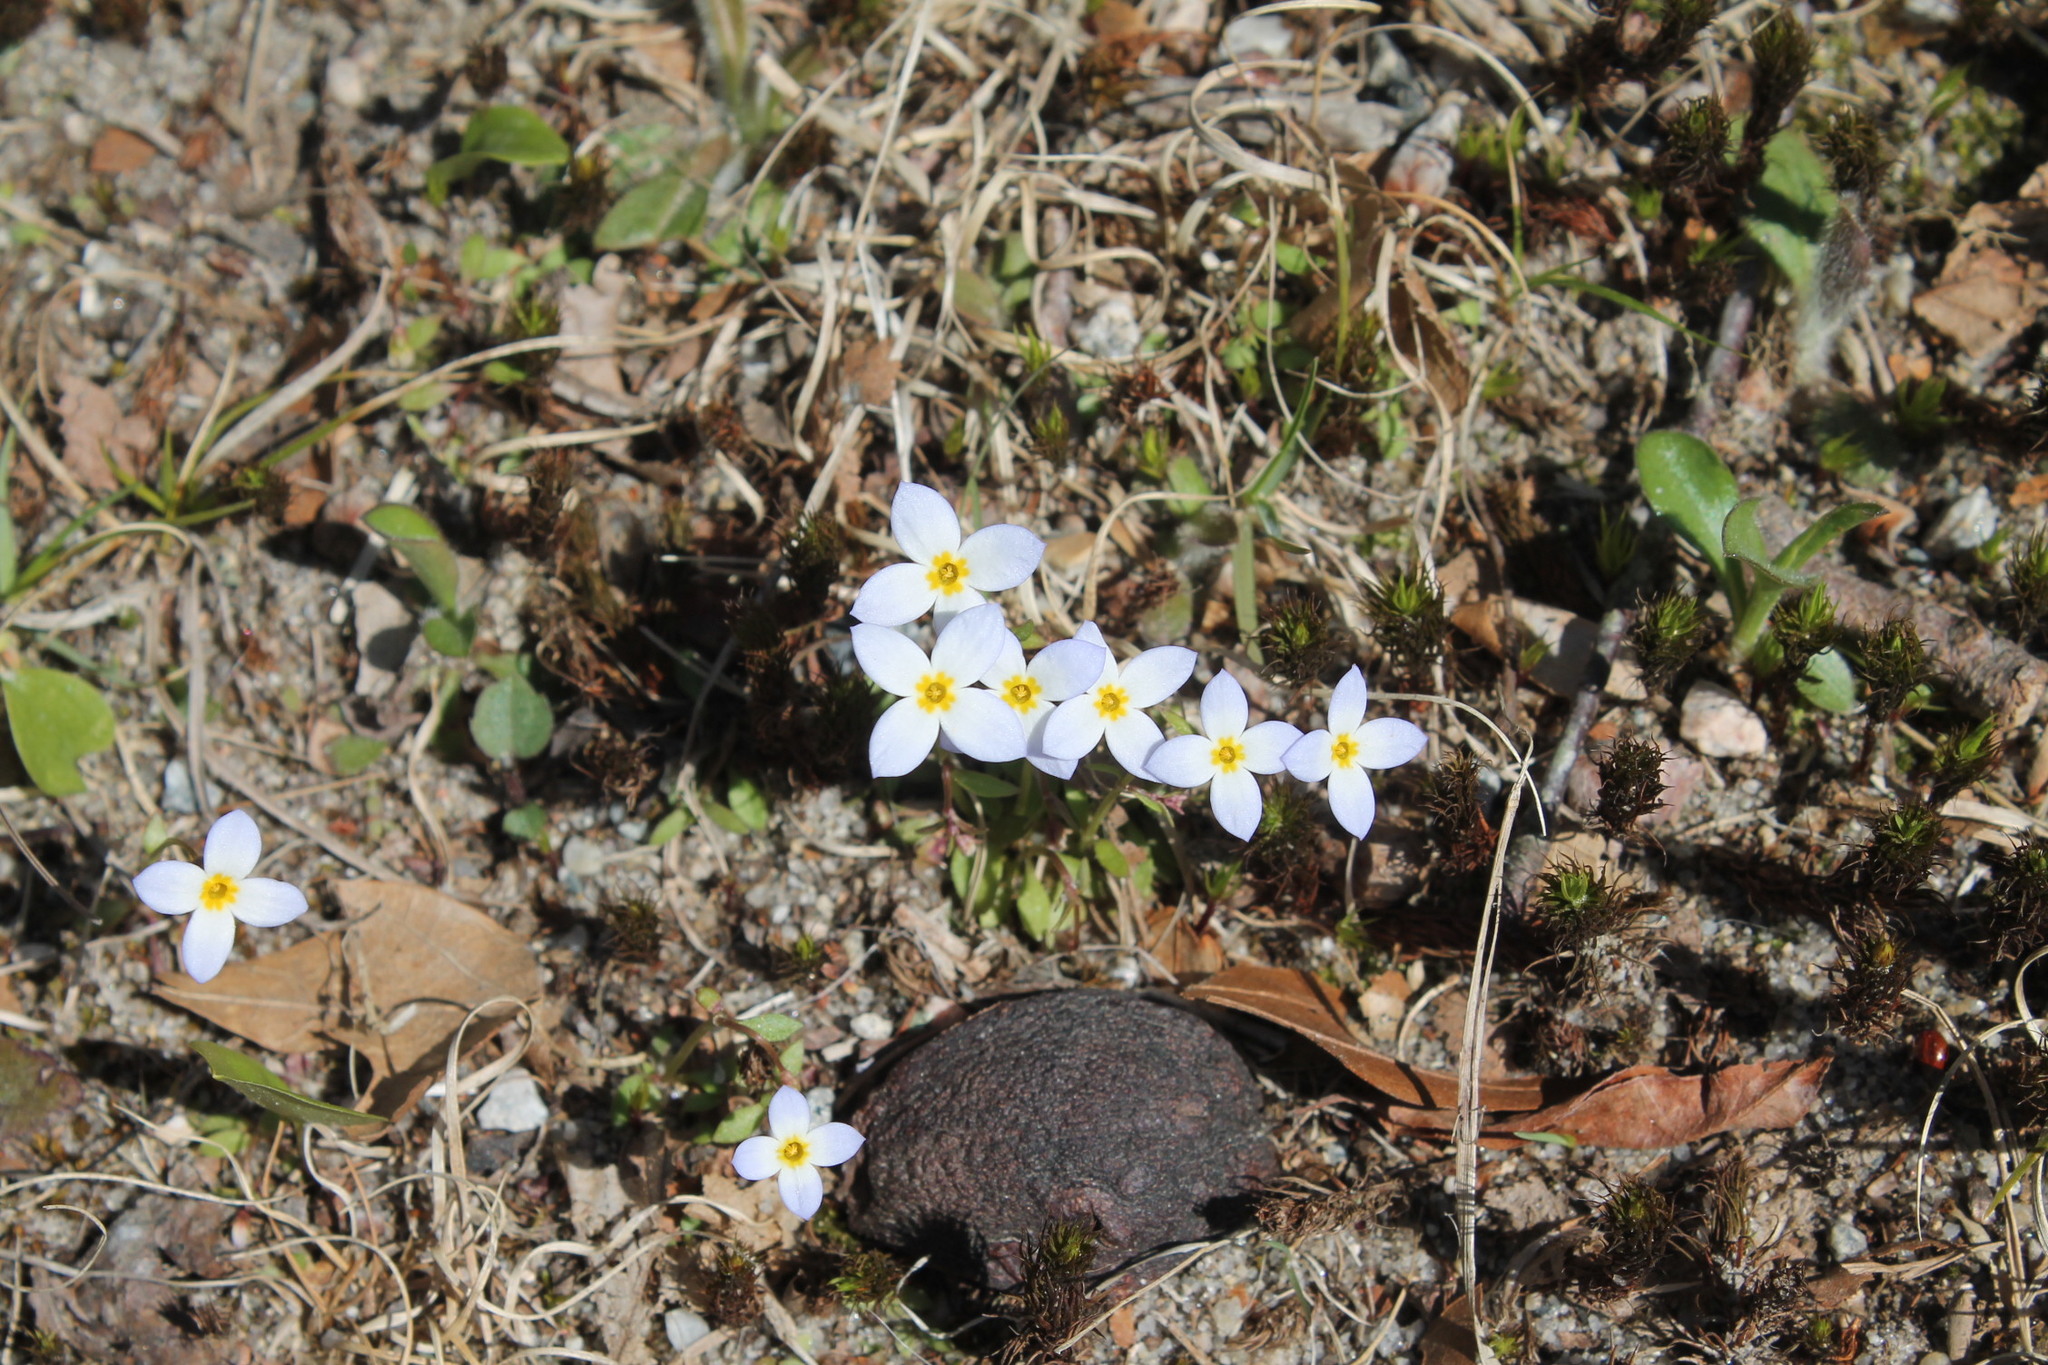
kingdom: Plantae
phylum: Tracheophyta
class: Magnoliopsida
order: Gentianales
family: Rubiaceae
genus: Houstonia
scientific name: Houstonia caerulea
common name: Bluets
